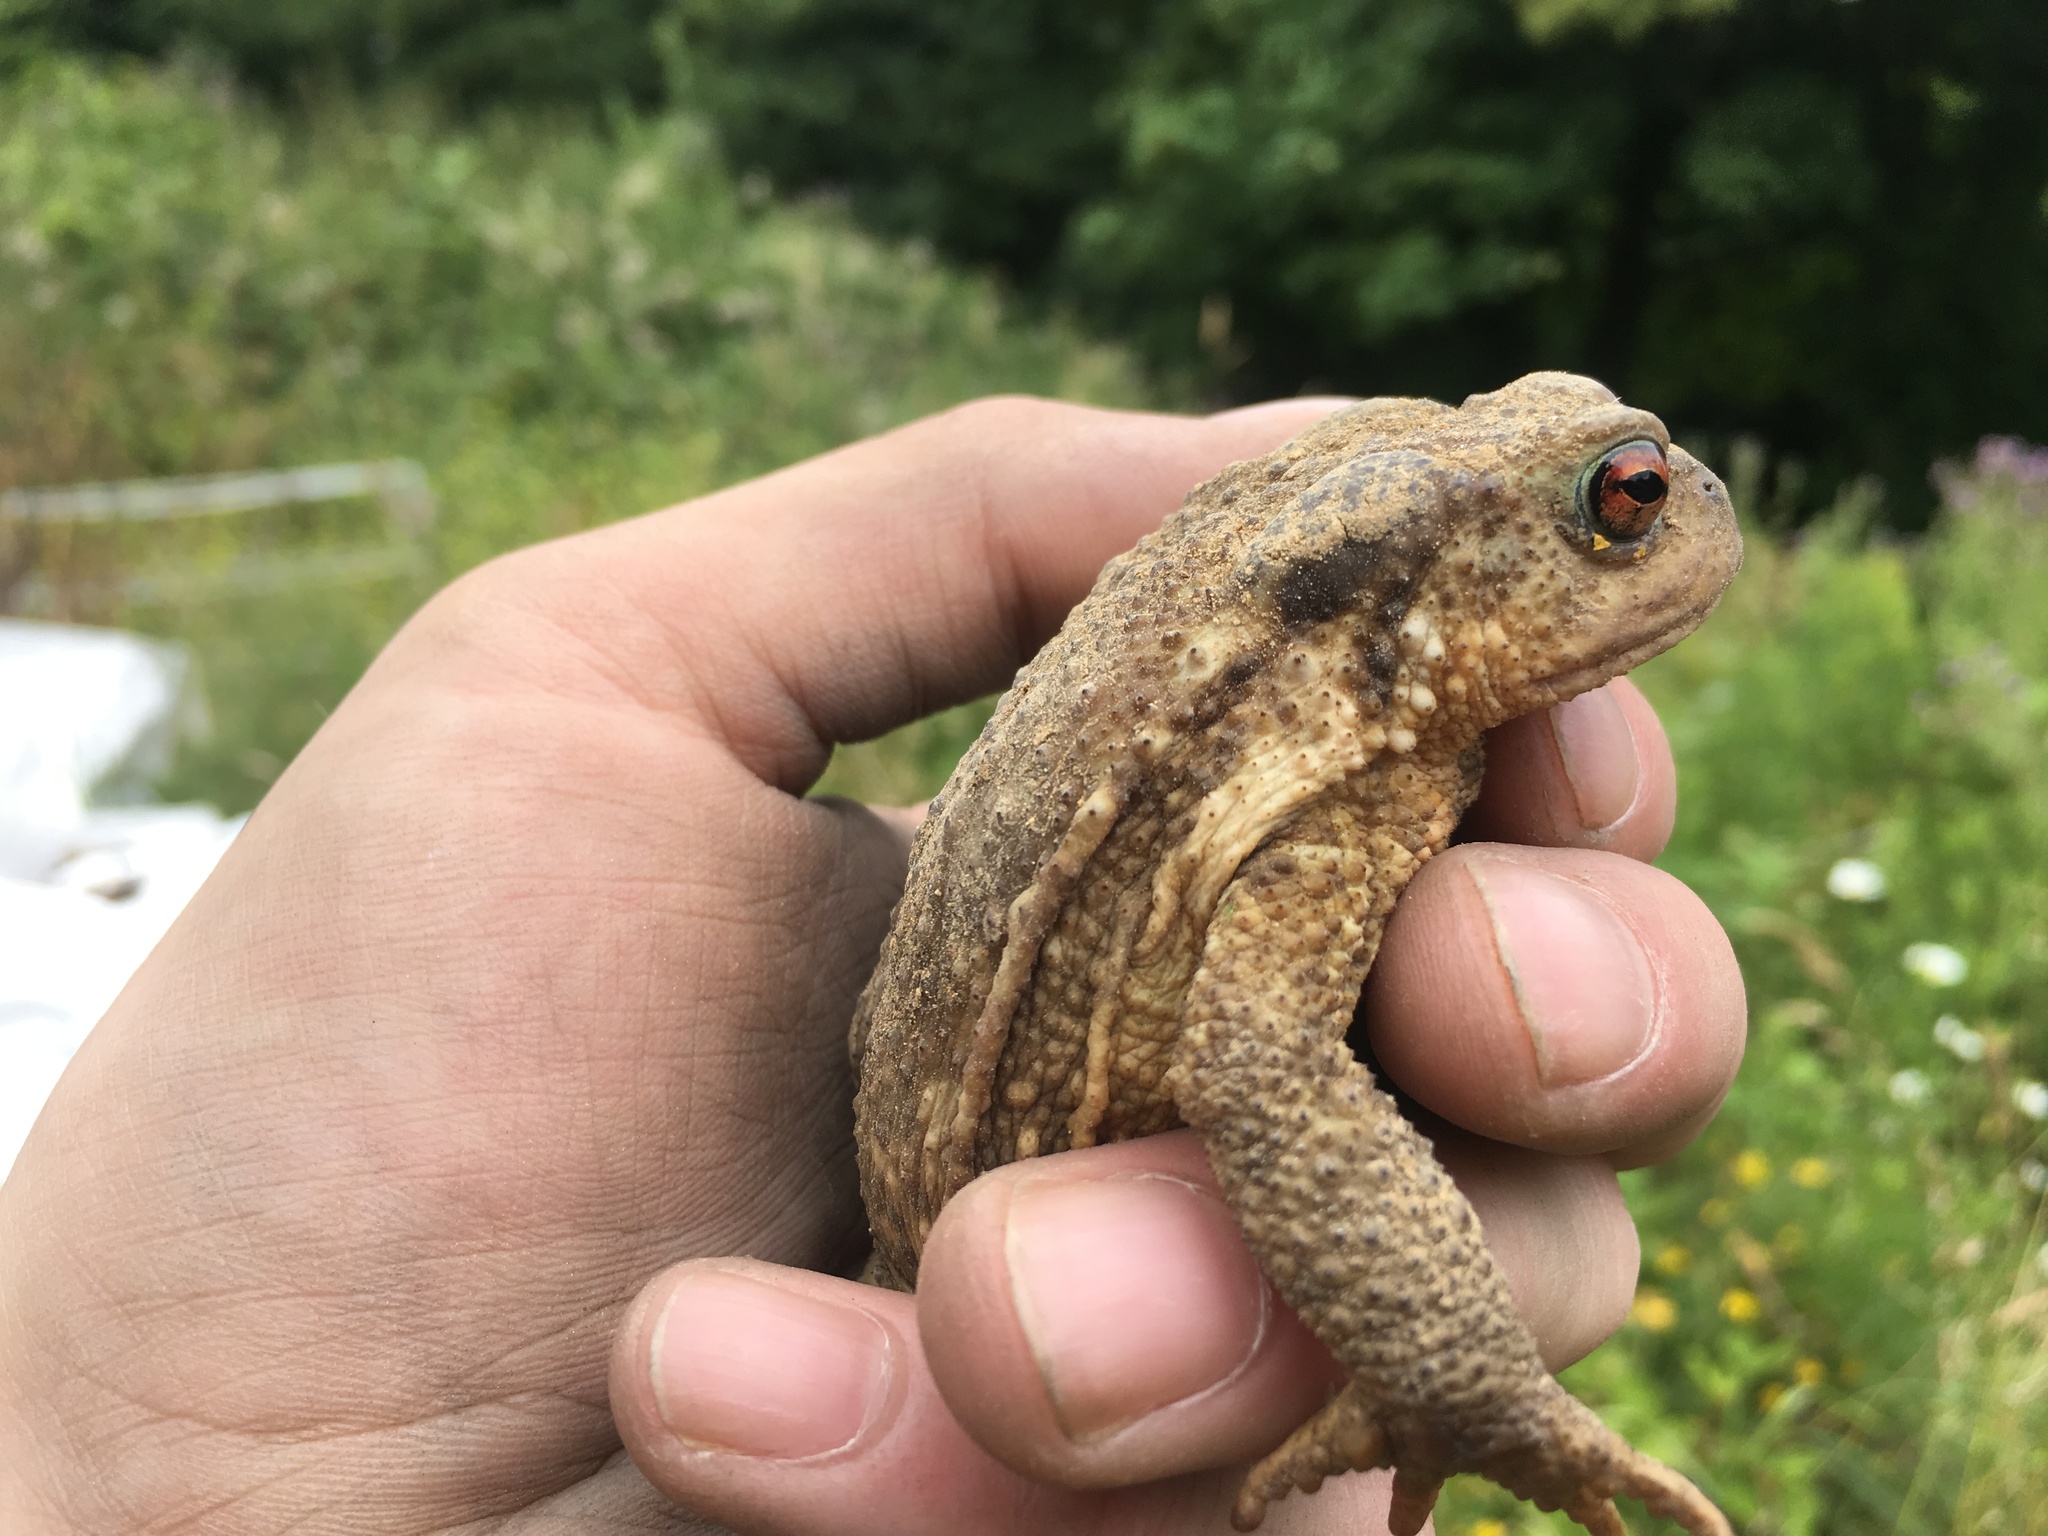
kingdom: Animalia
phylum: Chordata
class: Amphibia
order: Anura
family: Bufonidae
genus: Bufo
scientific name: Bufo spinosus
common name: Western common toad
